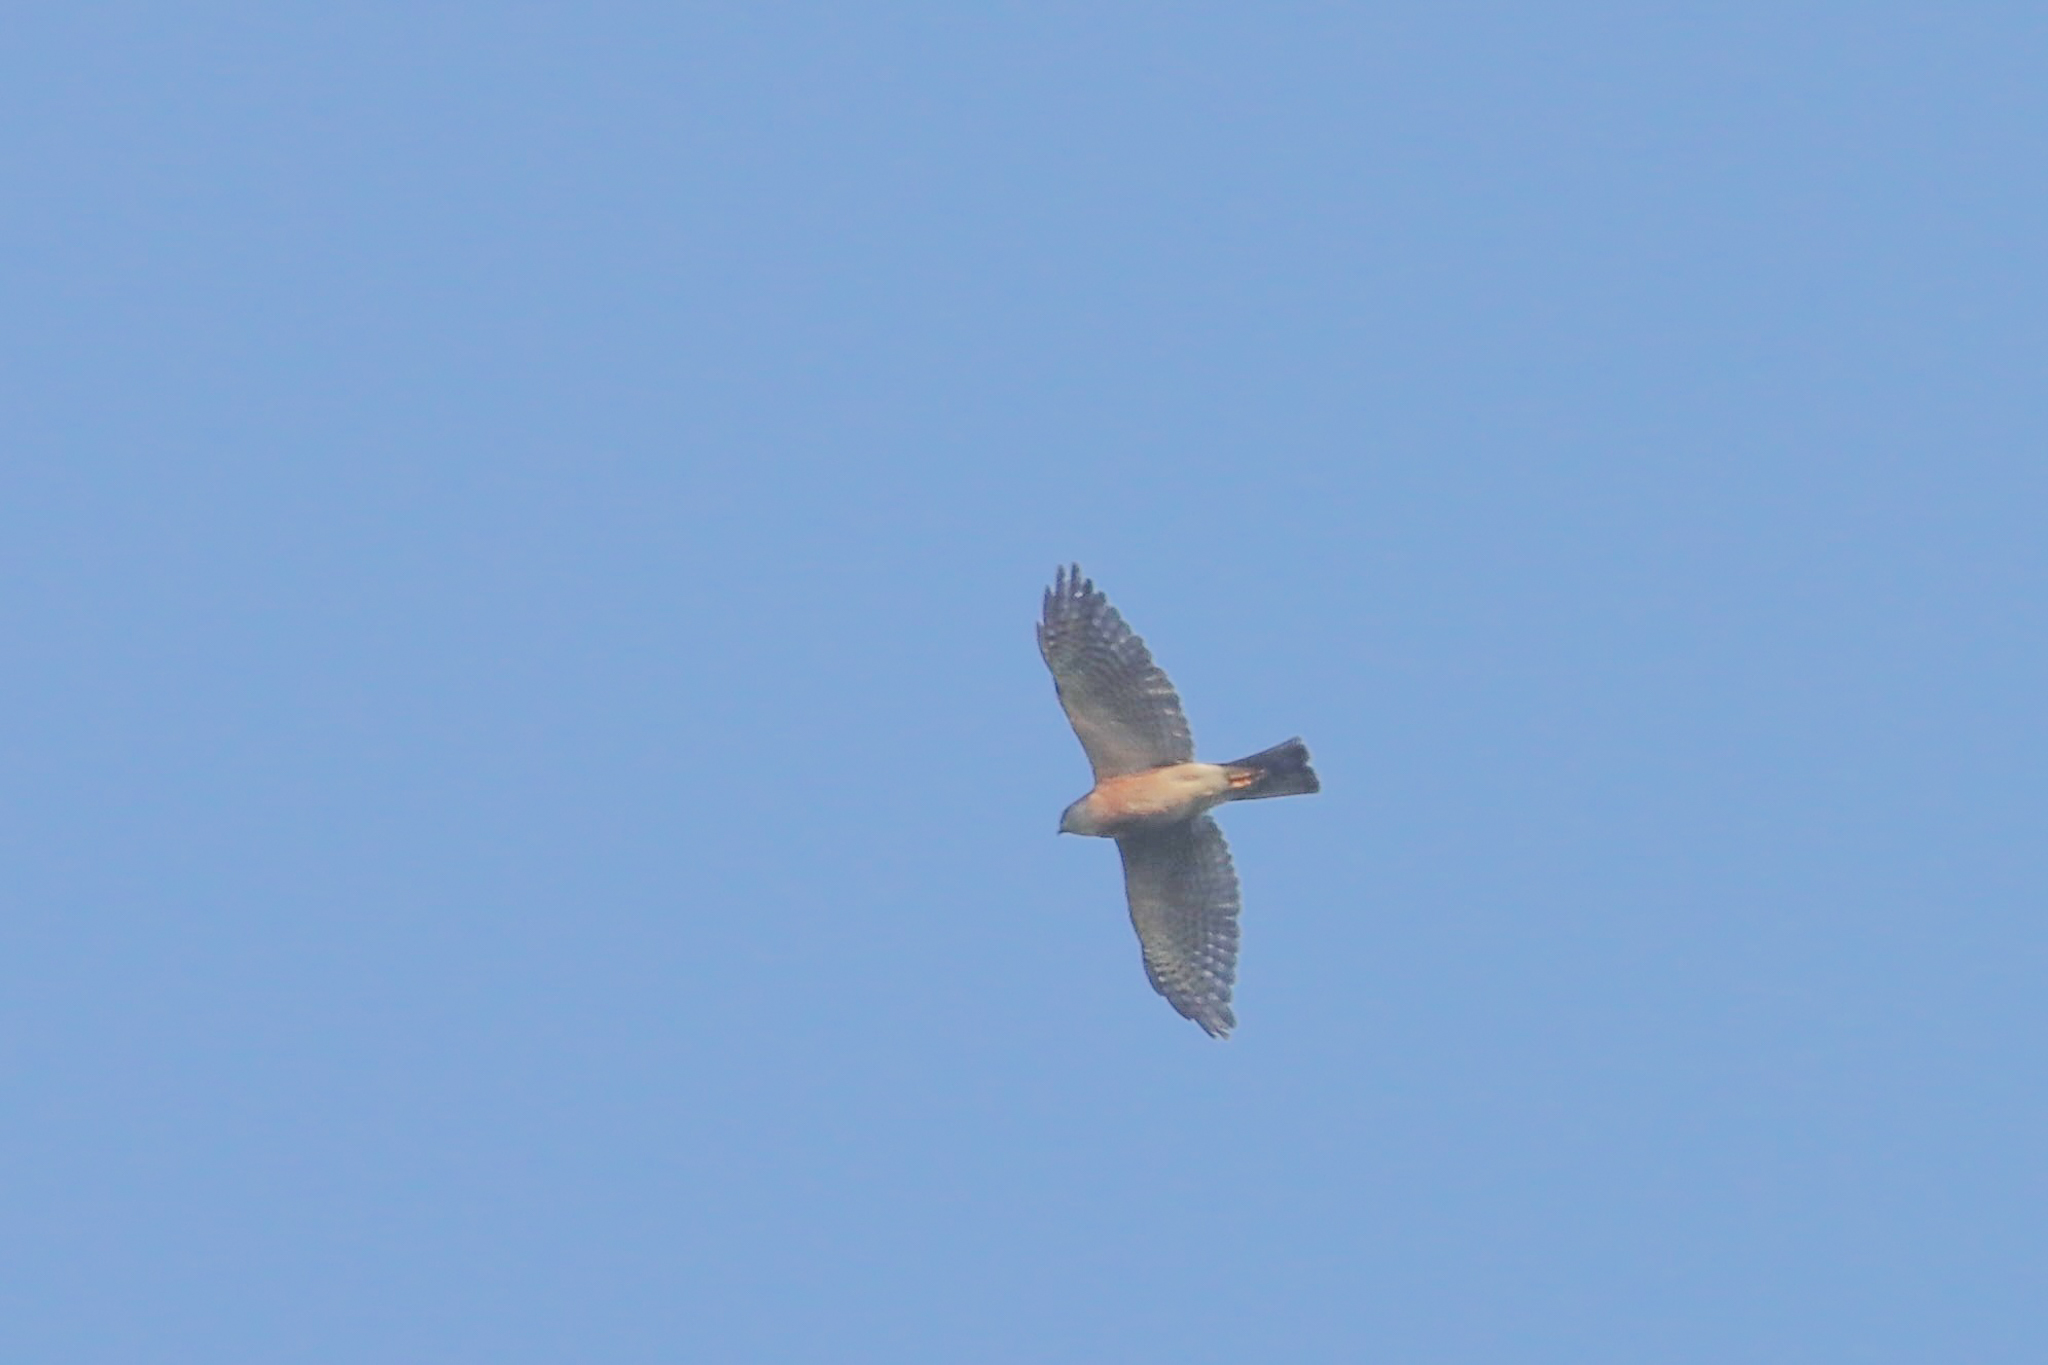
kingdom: Animalia
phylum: Chordata
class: Aves
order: Accipitriformes
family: Accipitridae
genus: Accipiter
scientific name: Accipiter gularis
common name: Japanese sparrowhawk
